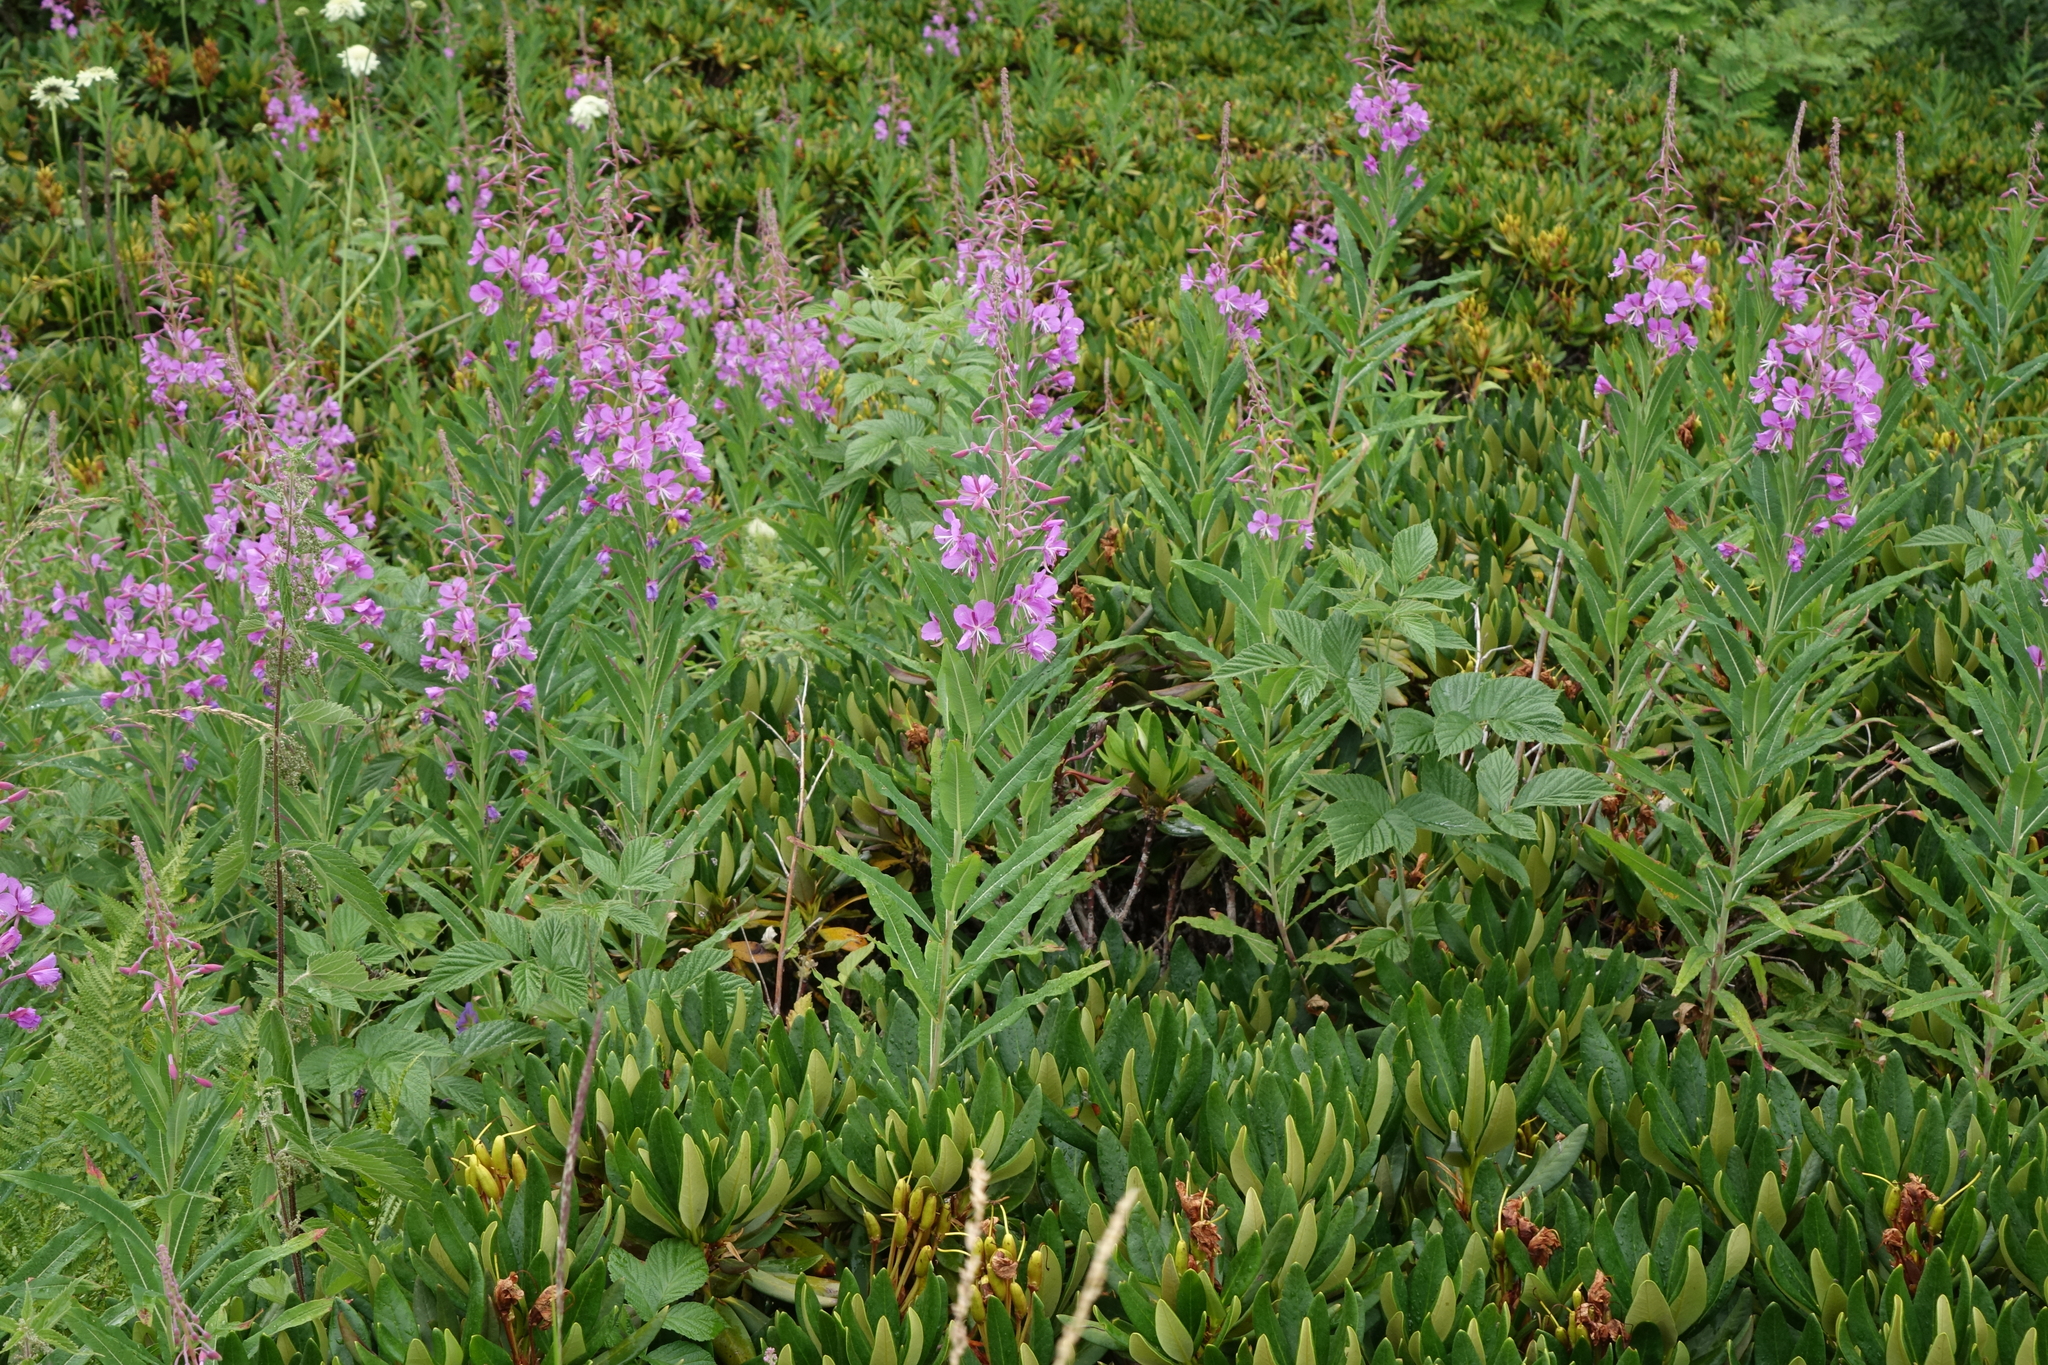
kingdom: Plantae
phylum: Tracheophyta
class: Magnoliopsida
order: Myrtales
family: Onagraceae
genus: Chamaenerion
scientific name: Chamaenerion angustifolium
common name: Fireweed
